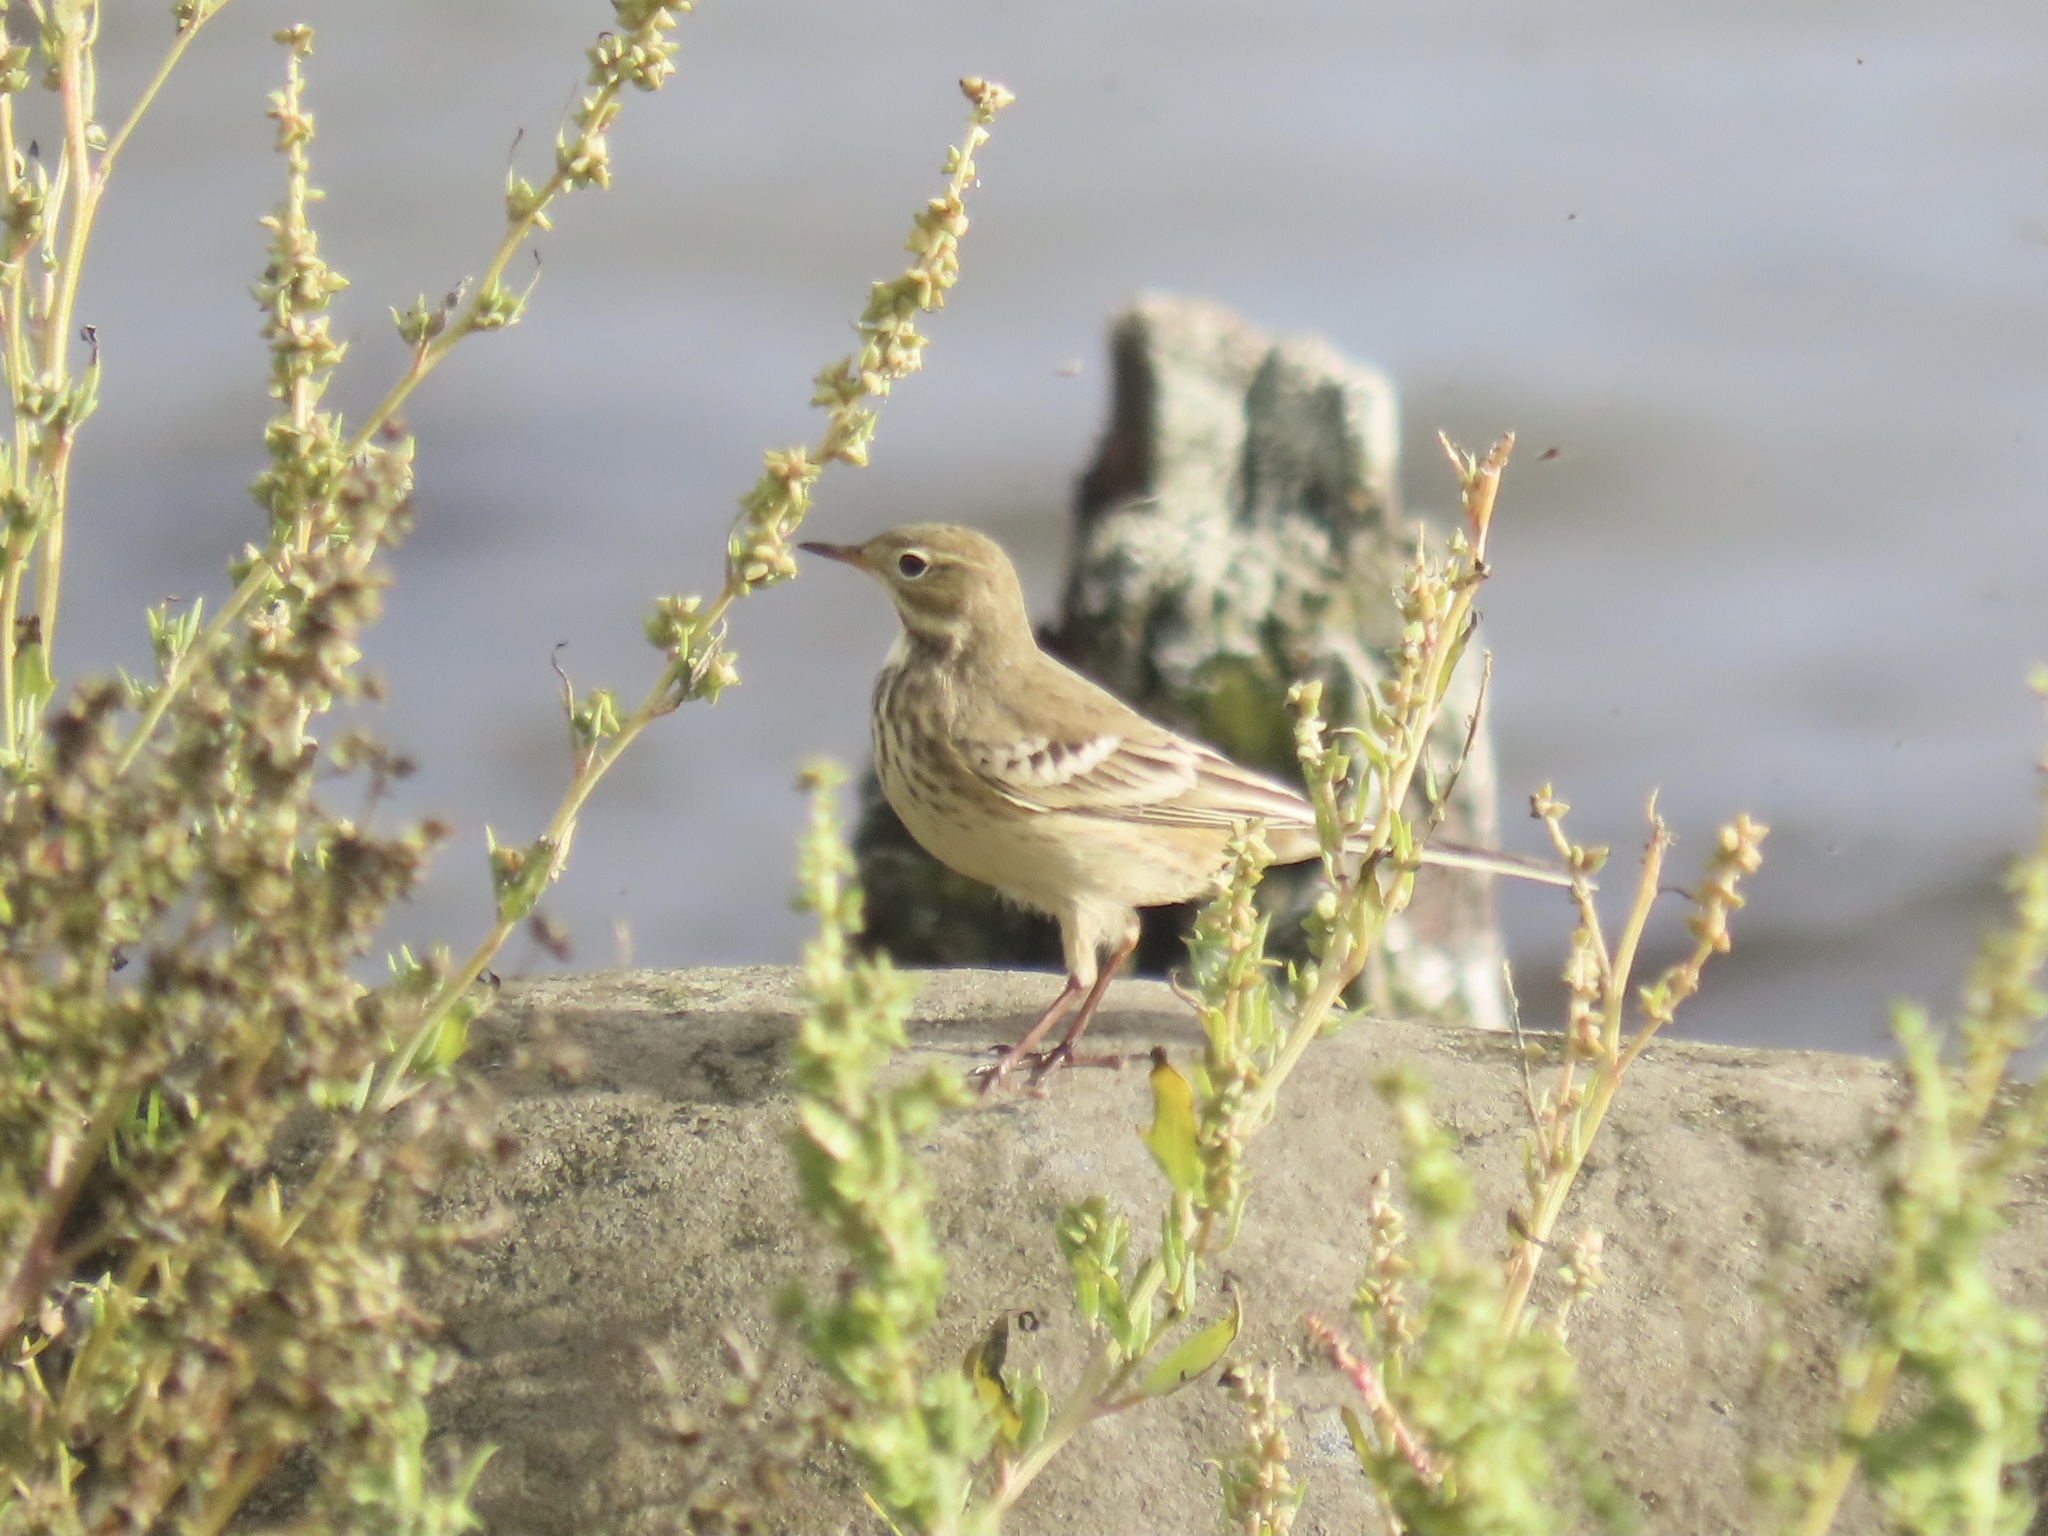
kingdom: Animalia
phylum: Chordata
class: Aves
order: Passeriformes
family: Motacillidae
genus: Anthus
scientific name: Anthus rubescens
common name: Buff-bellied pipit
